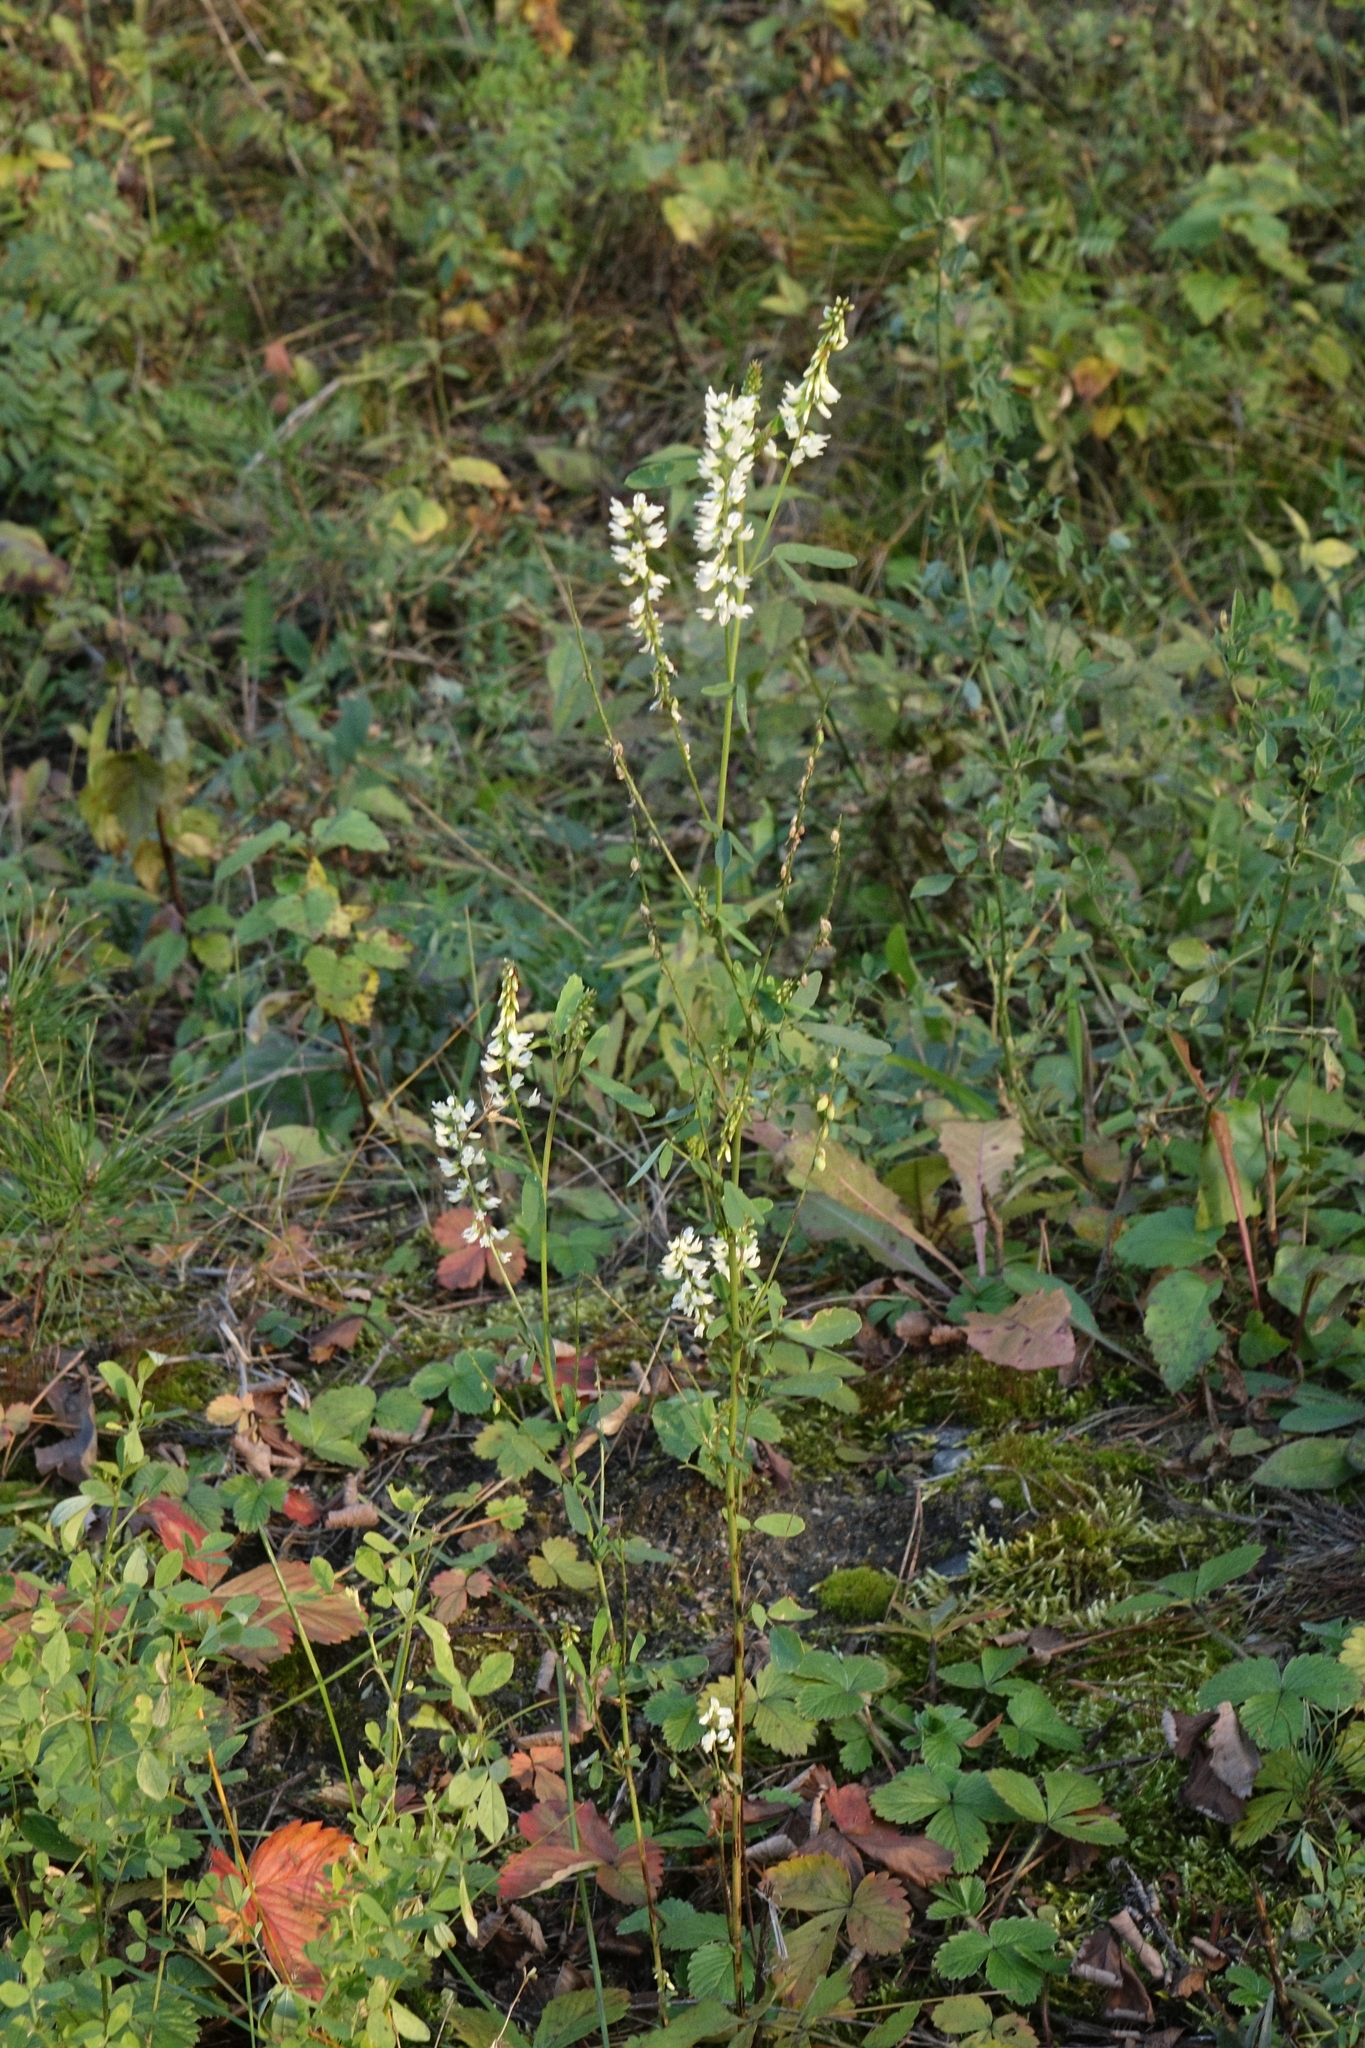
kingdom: Plantae
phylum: Tracheophyta
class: Magnoliopsida
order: Fabales
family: Fabaceae
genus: Melilotus
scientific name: Melilotus albus
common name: White melilot
